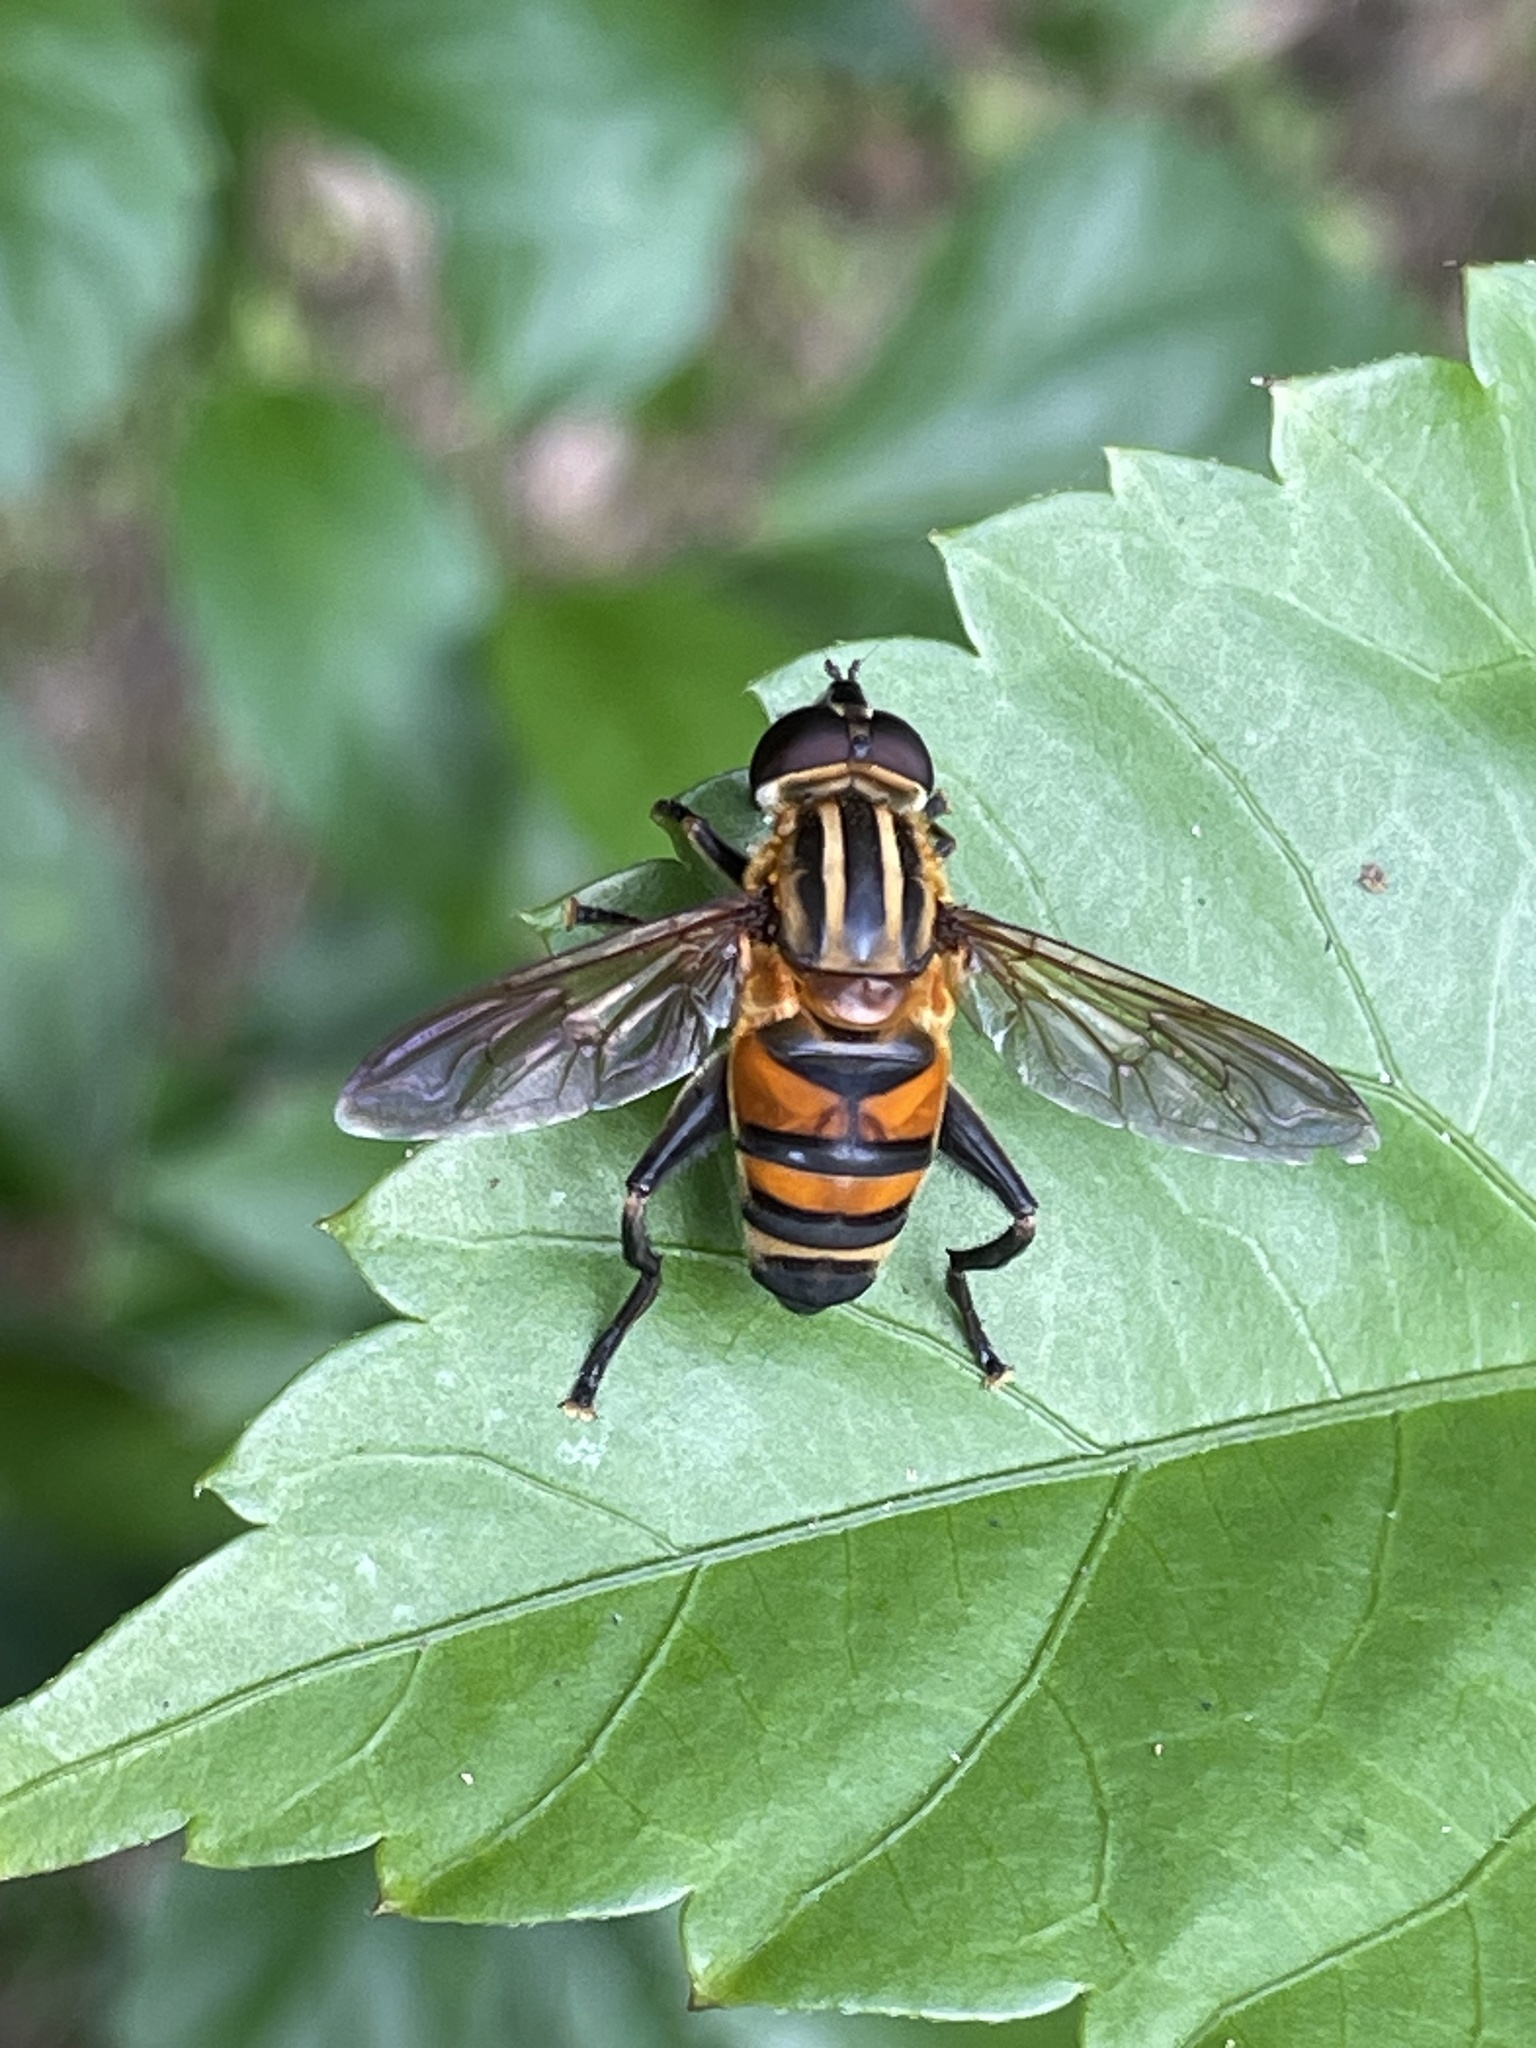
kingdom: Animalia
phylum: Arthropoda
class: Insecta
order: Diptera
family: Syrphidae
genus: Mesembrius
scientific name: Mesembrius bengalensis
